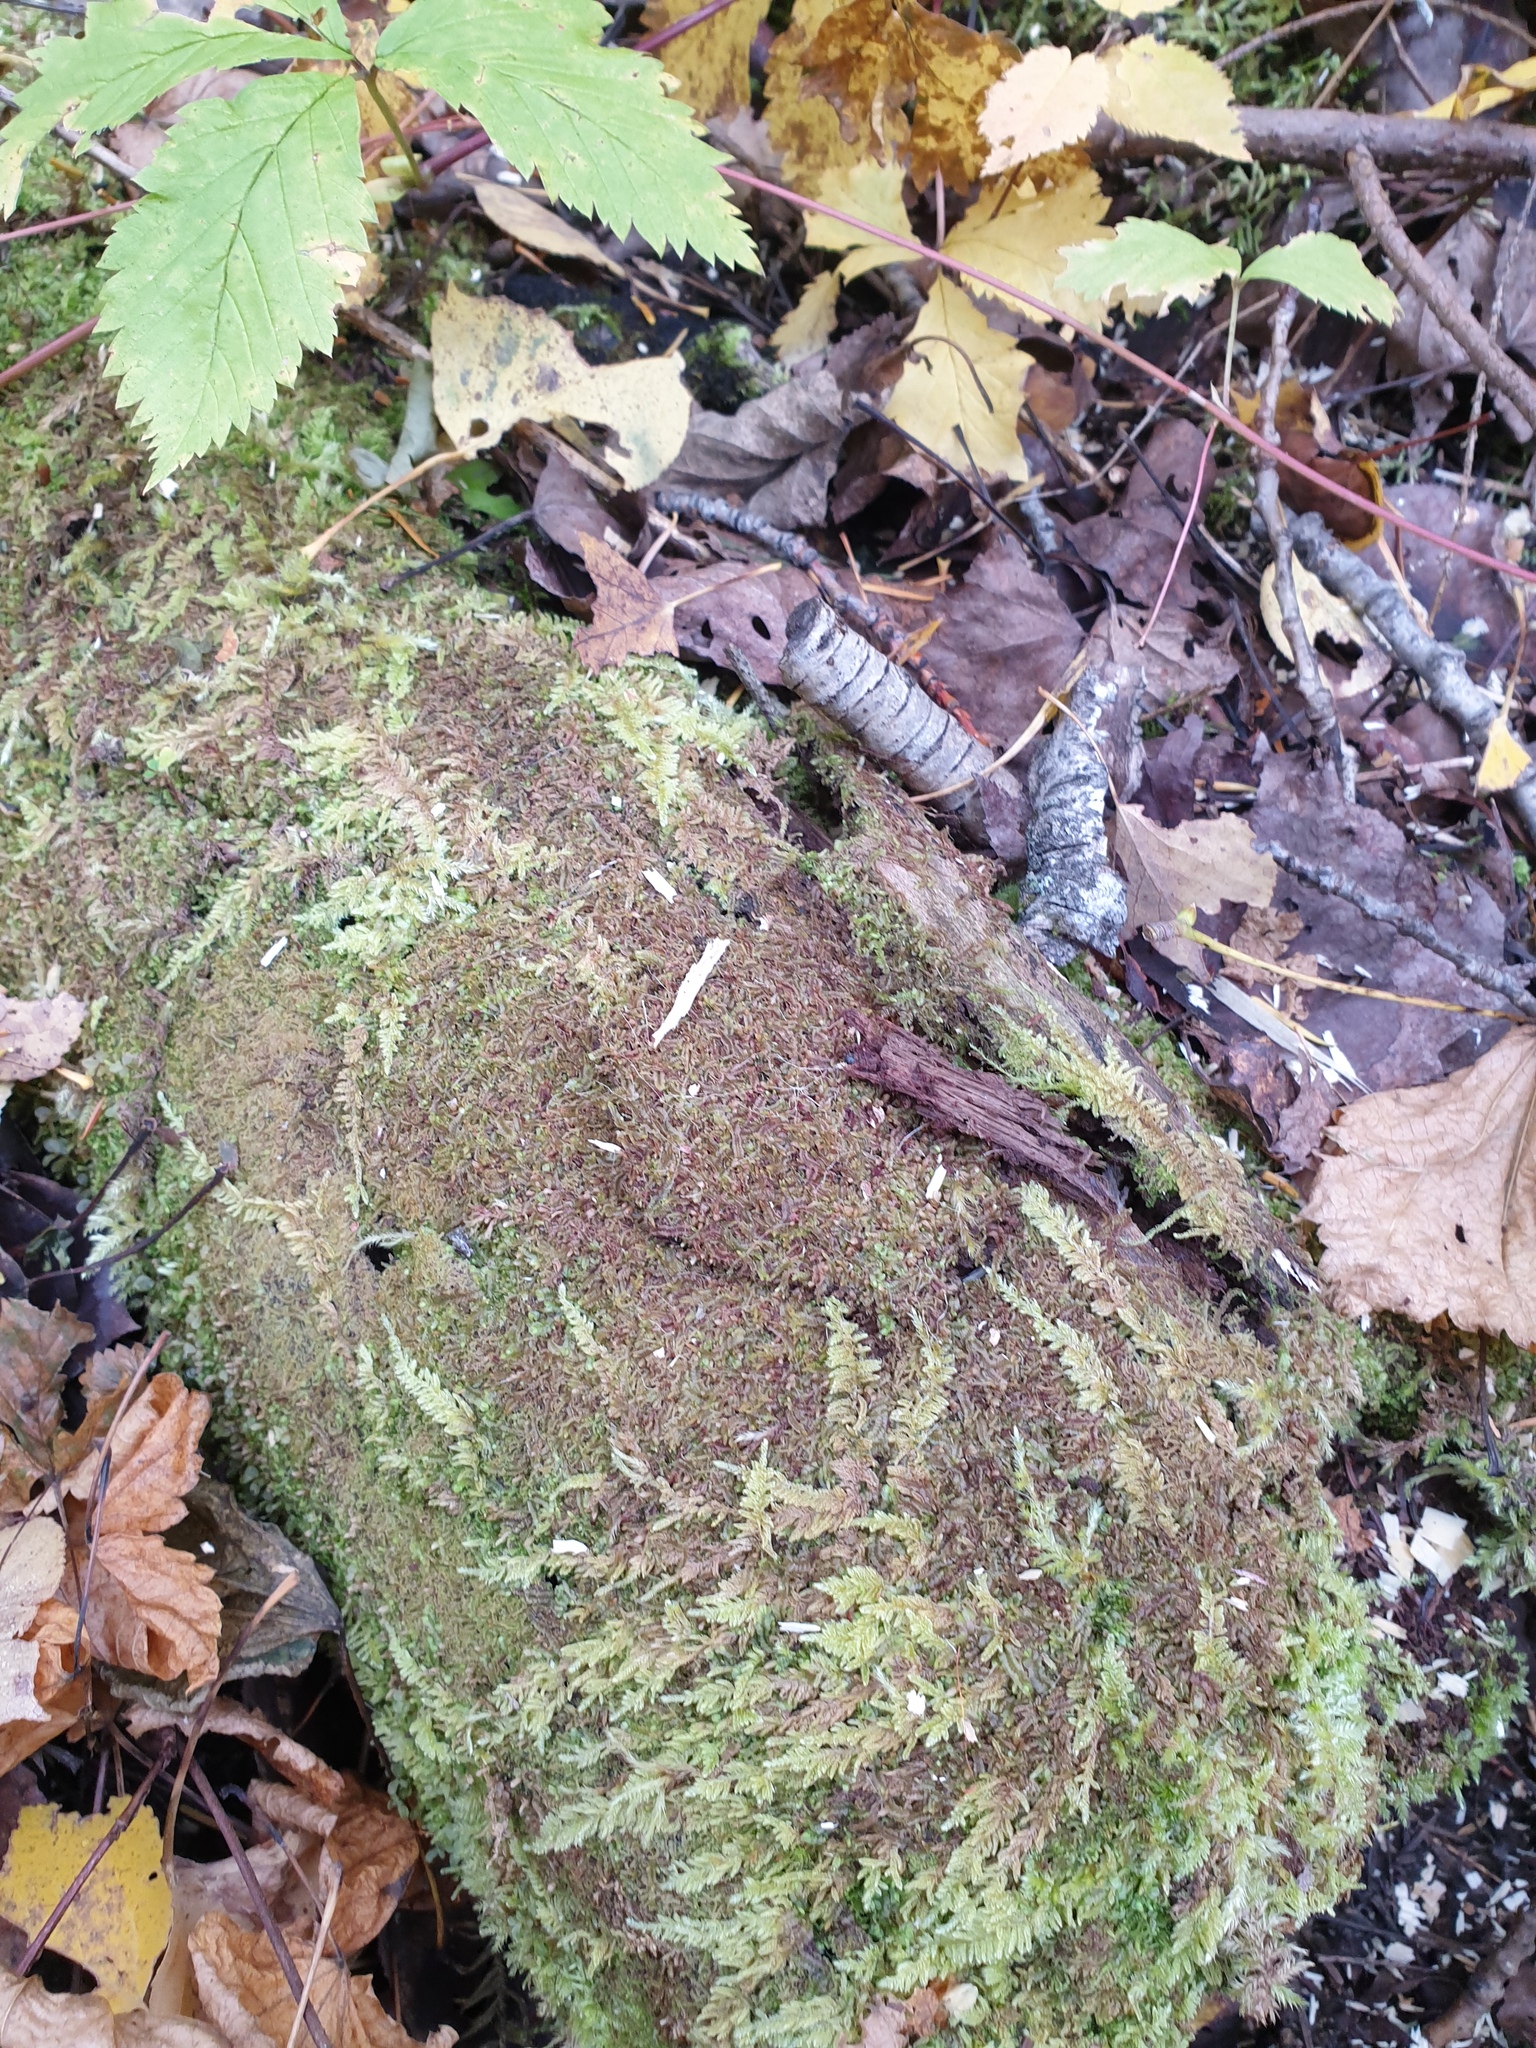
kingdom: Plantae
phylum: Marchantiophyta
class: Jungermanniopsida
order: Jungermanniales
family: Adelanthaceae
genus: Syzygiella
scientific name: Syzygiella autumnalis
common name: Jameson's liverwort
